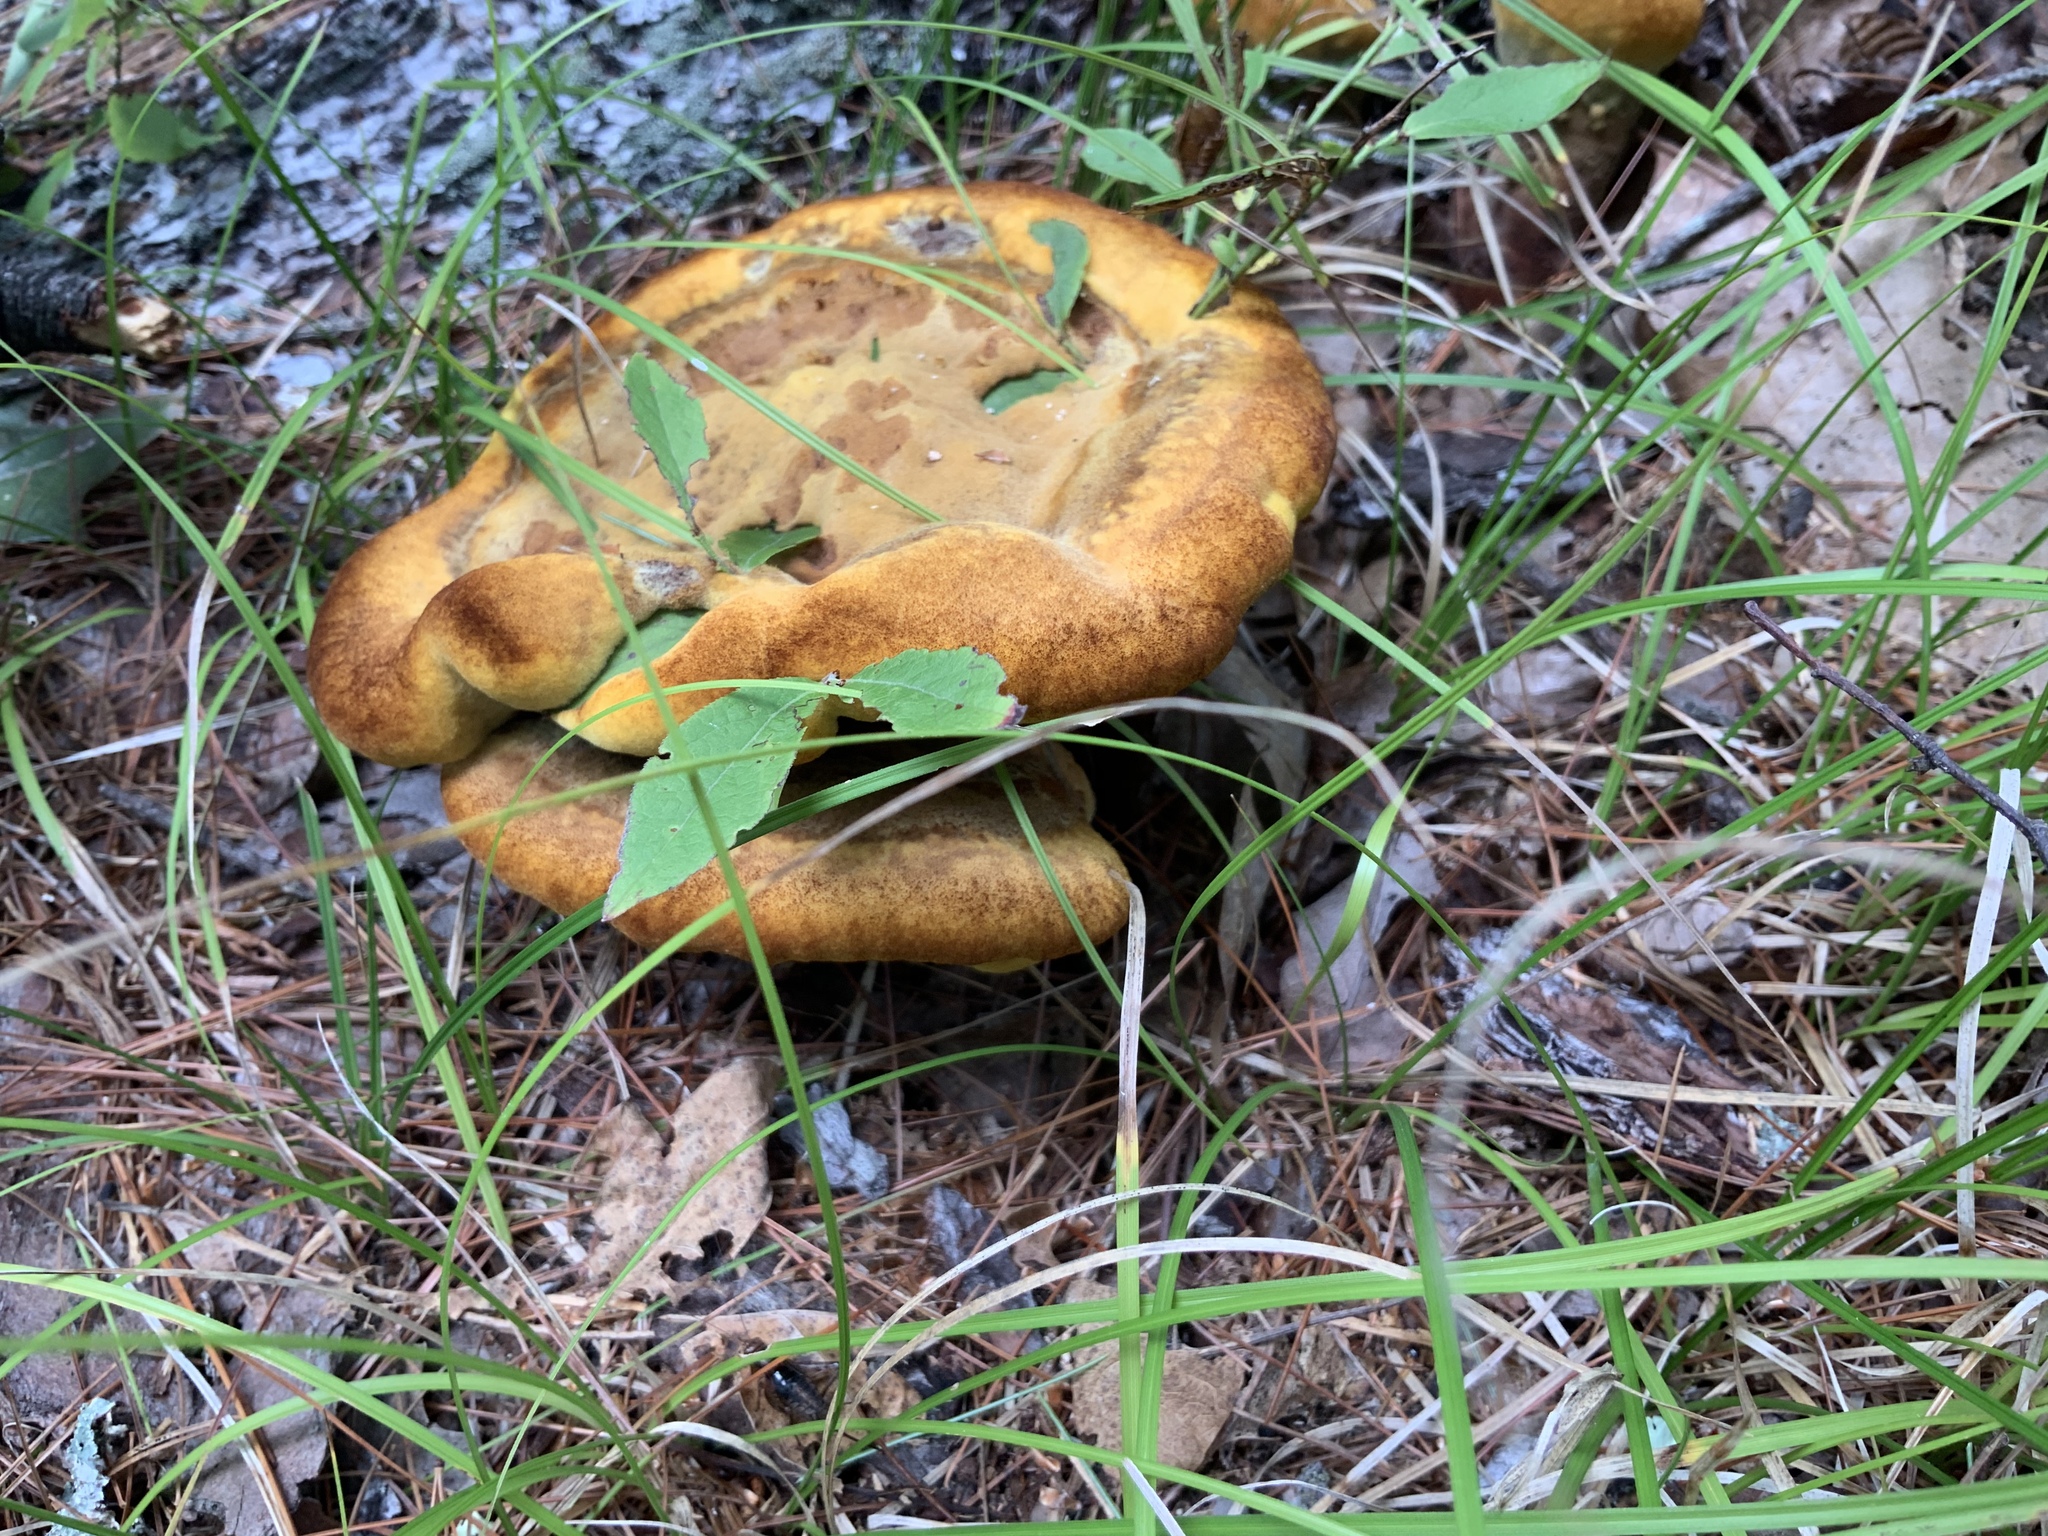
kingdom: Fungi
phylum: Basidiomycota
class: Agaricomycetes
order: Polyporales
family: Laetiporaceae
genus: Phaeolus
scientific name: Phaeolus schweinitzii
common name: Dyer's mazegill
